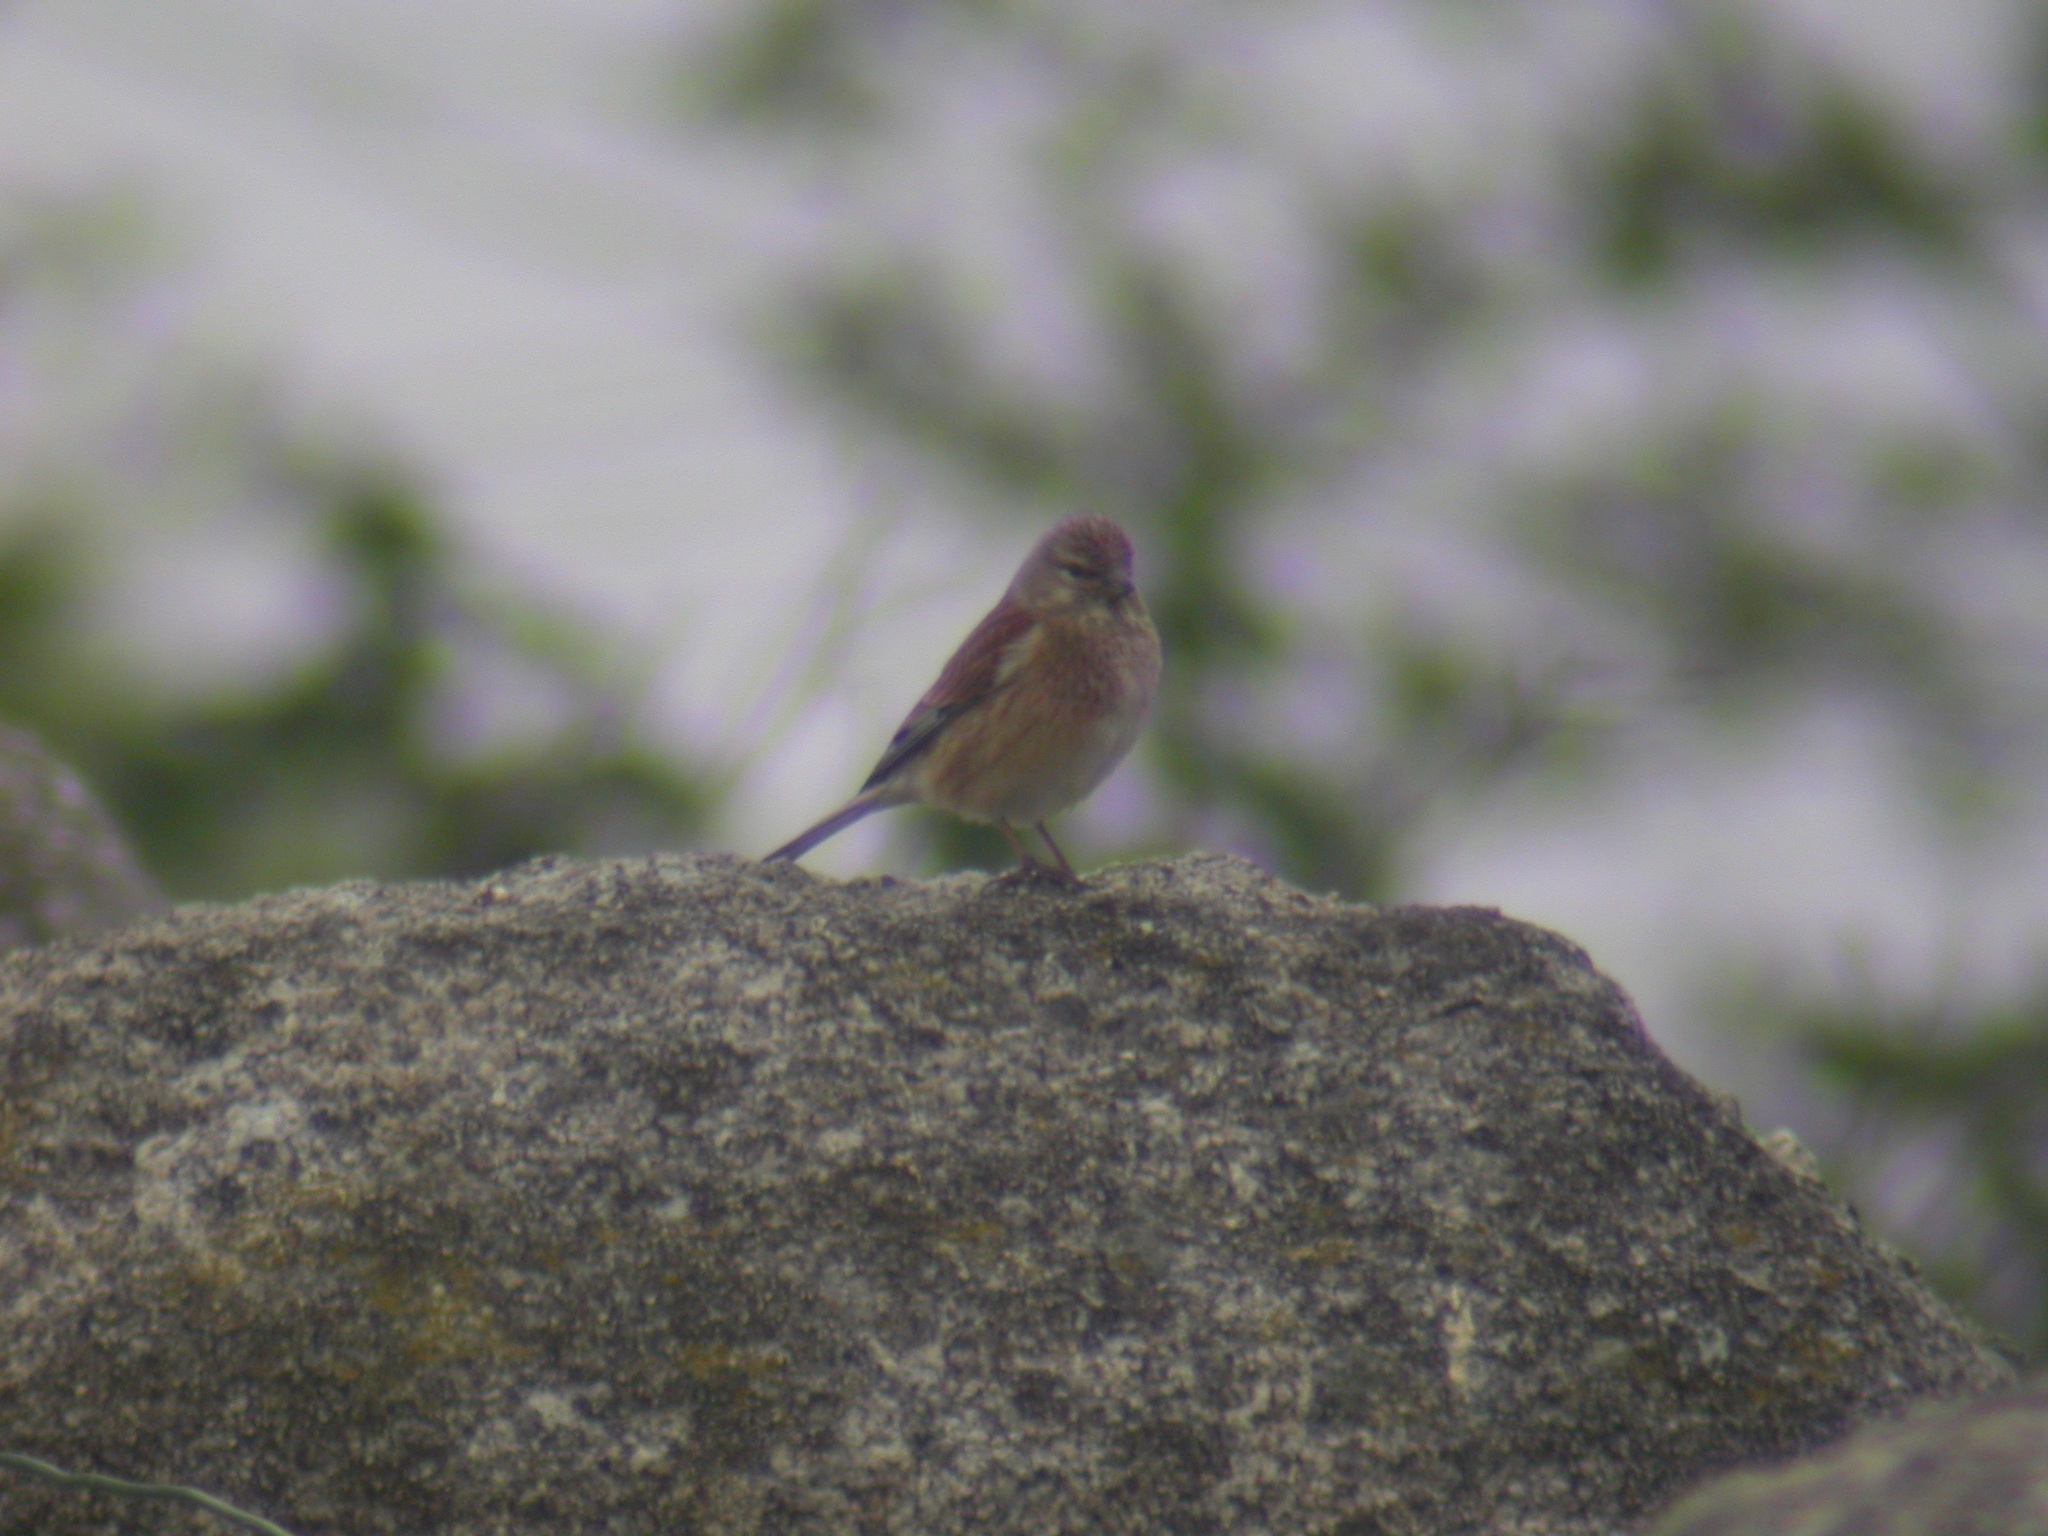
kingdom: Animalia
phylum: Chordata
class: Aves
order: Passeriformes
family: Fringillidae
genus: Linaria
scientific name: Linaria cannabina
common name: Common linnet
